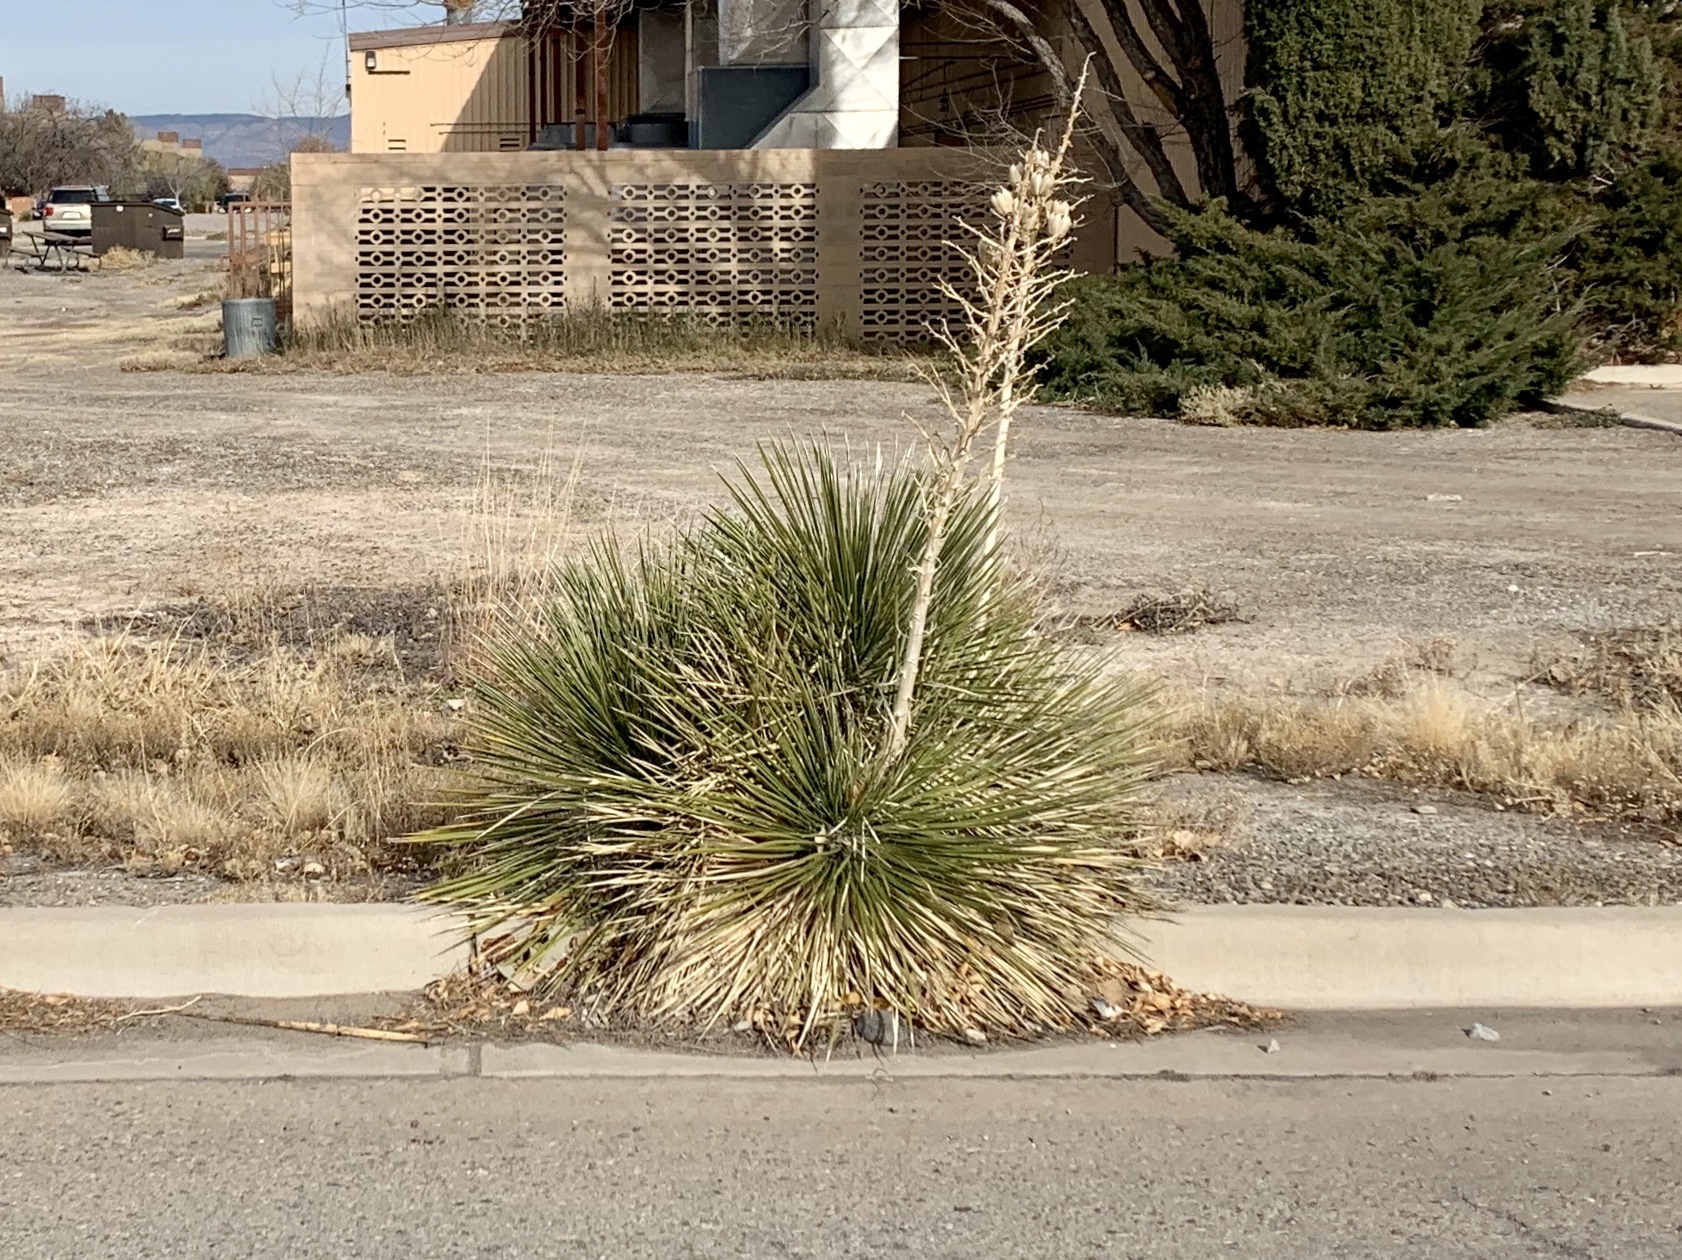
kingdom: Plantae
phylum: Tracheophyta
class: Liliopsida
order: Asparagales
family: Asparagaceae
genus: Yucca
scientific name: Yucca elata
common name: Palmella
